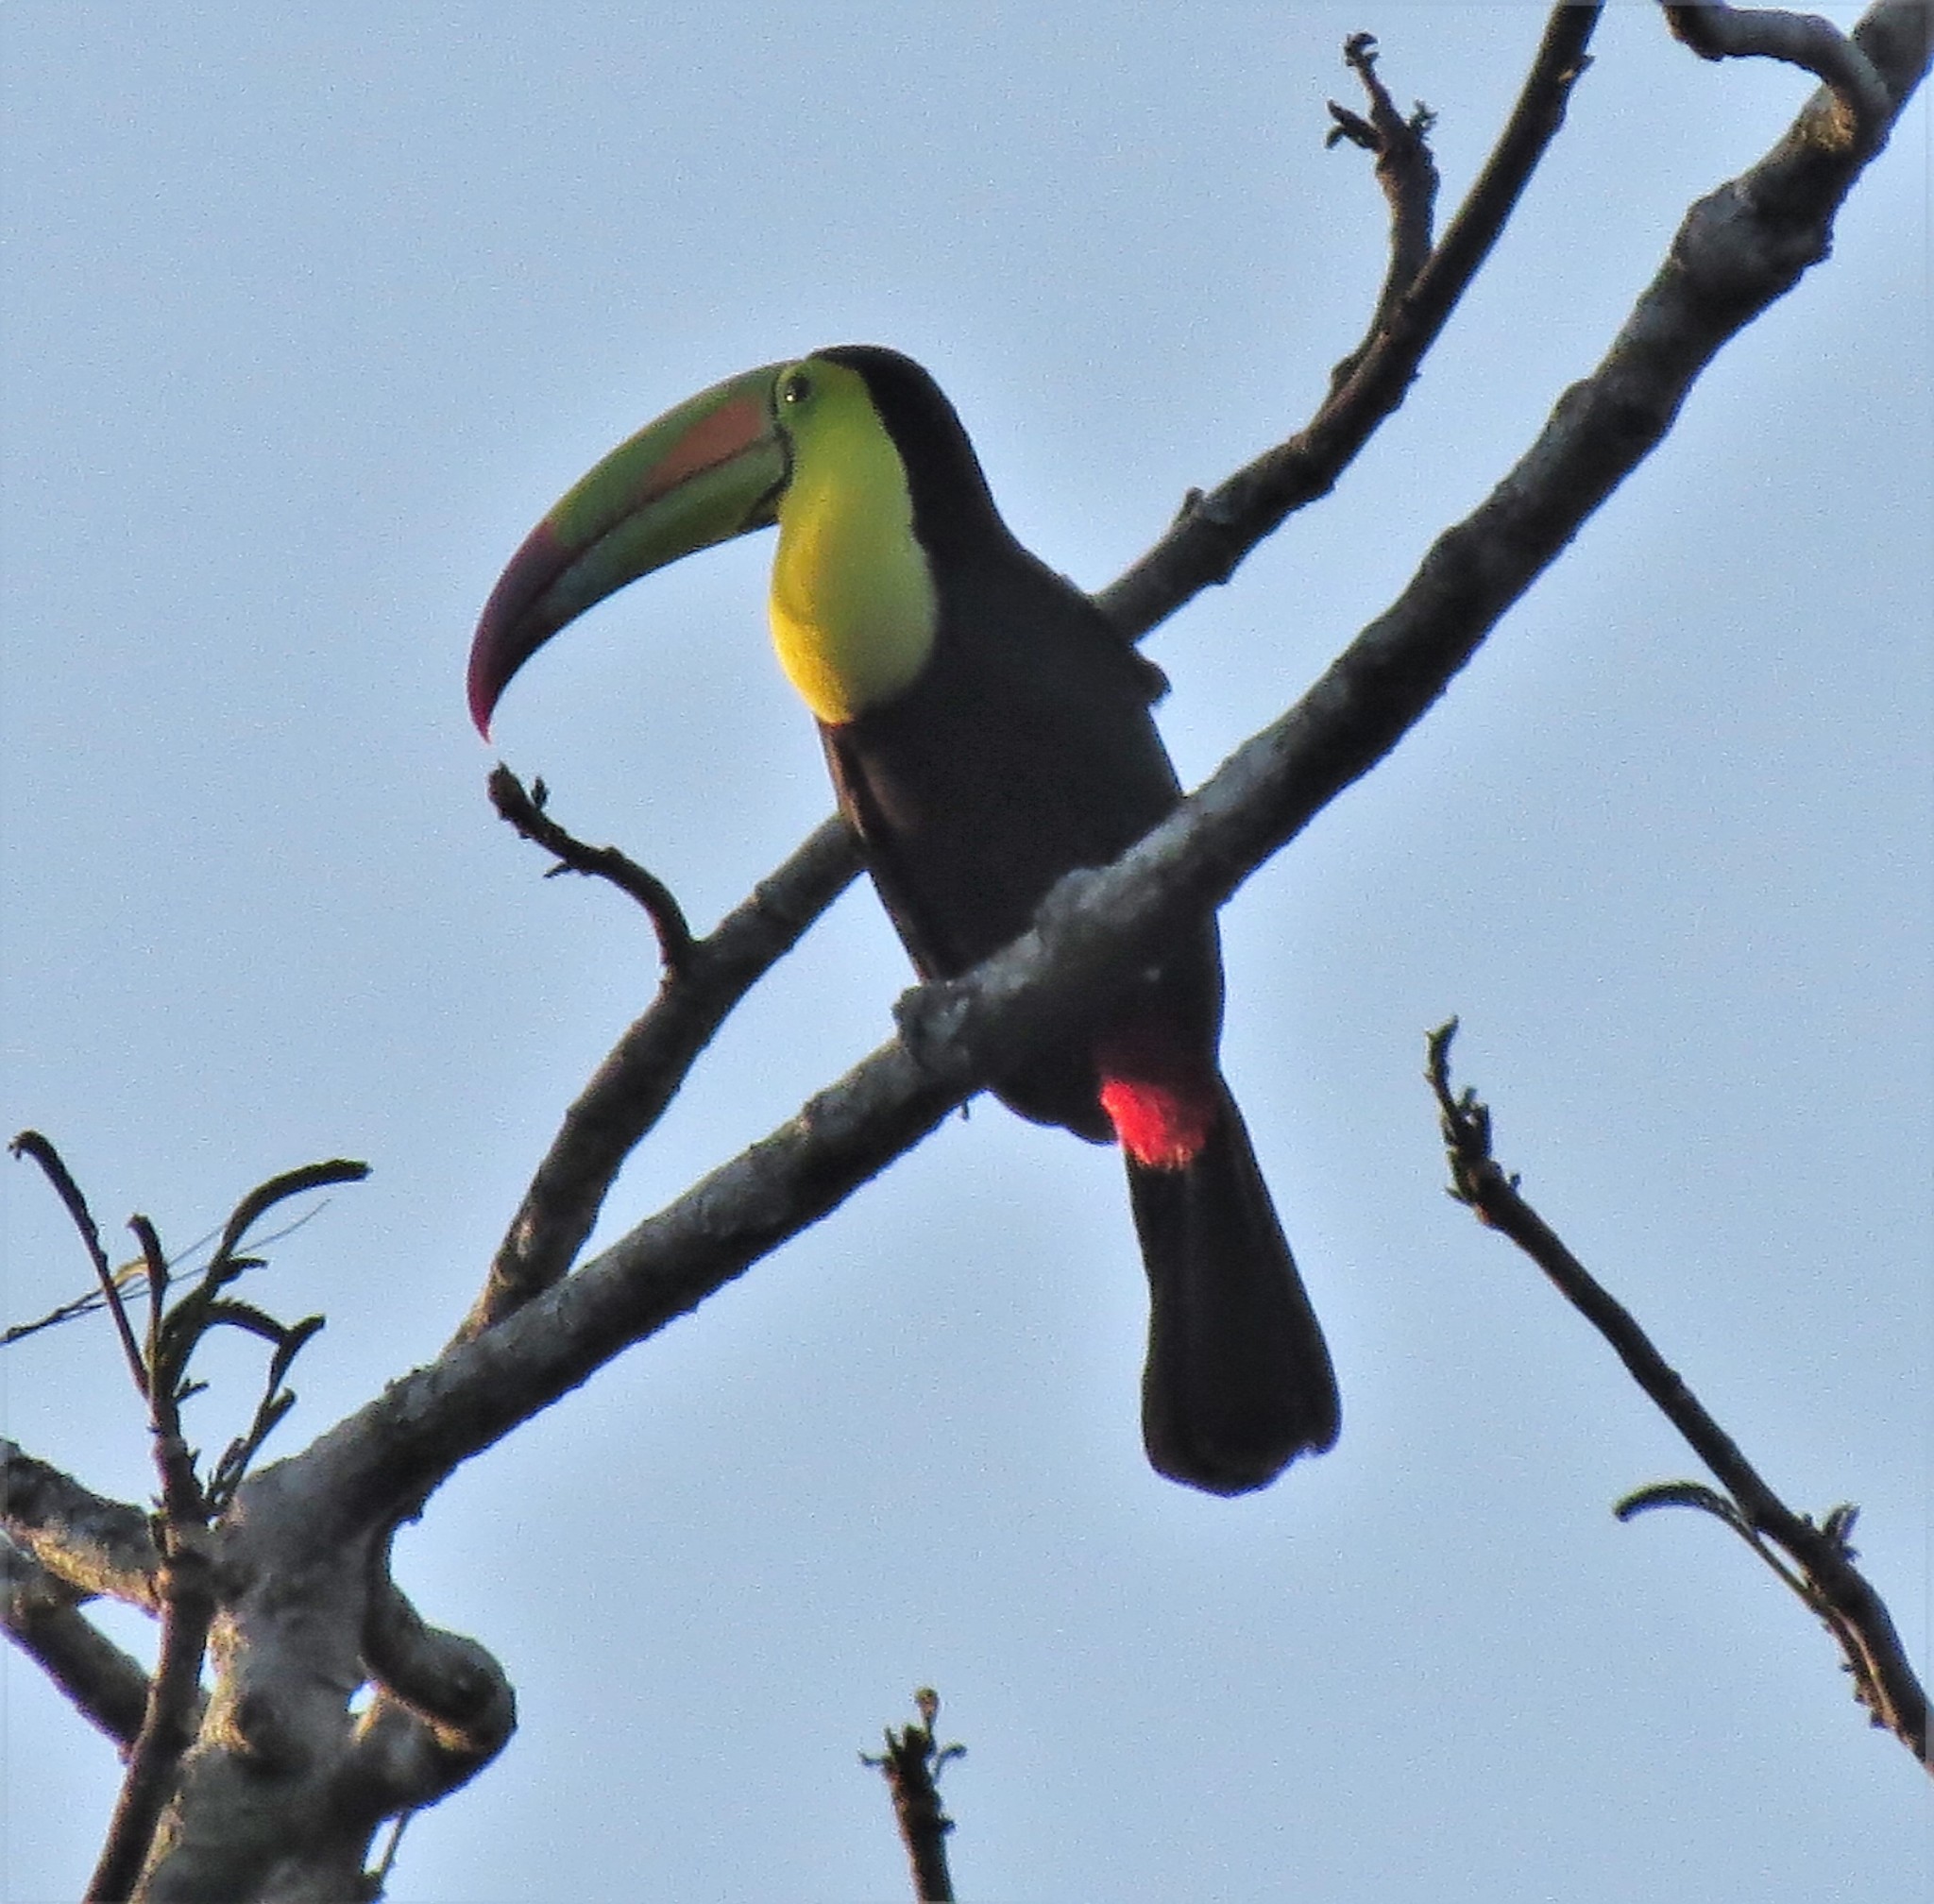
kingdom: Animalia
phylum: Chordata
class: Aves
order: Piciformes
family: Ramphastidae
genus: Ramphastos
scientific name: Ramphastos sulfuratus
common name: Keel-billed toucan
